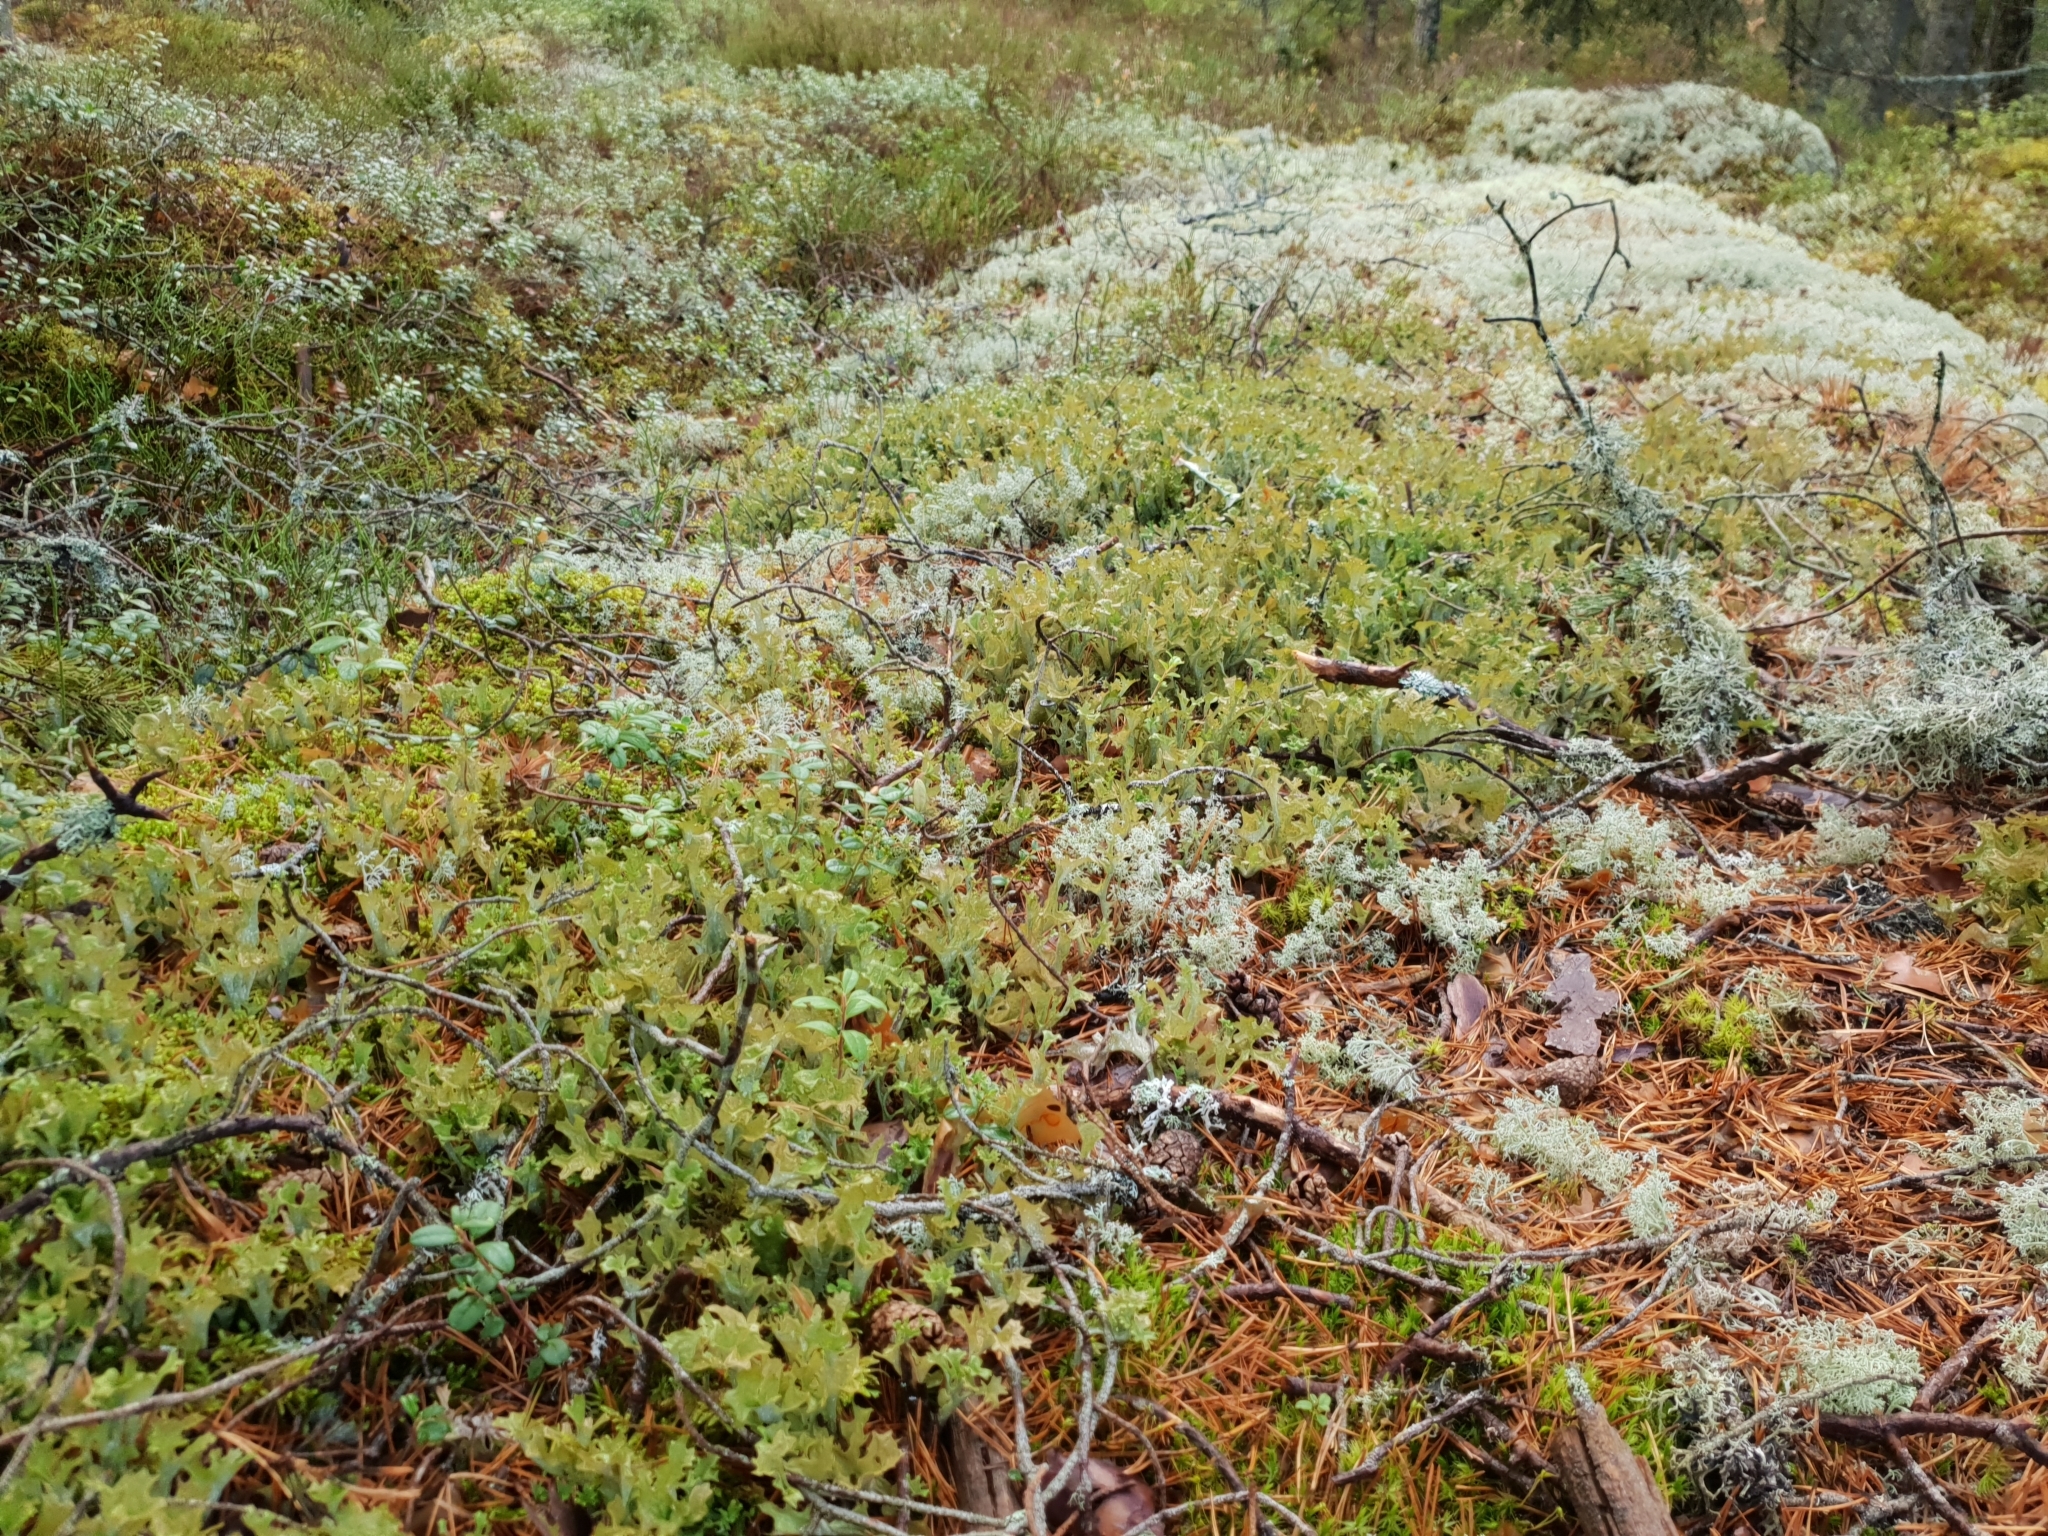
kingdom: Fungi
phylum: Ascomycota
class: Lecanoromycetes
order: Lecanorales
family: Parmeliaceae
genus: Cetraria
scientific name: Cetraria islandica
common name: Iceland lichen
